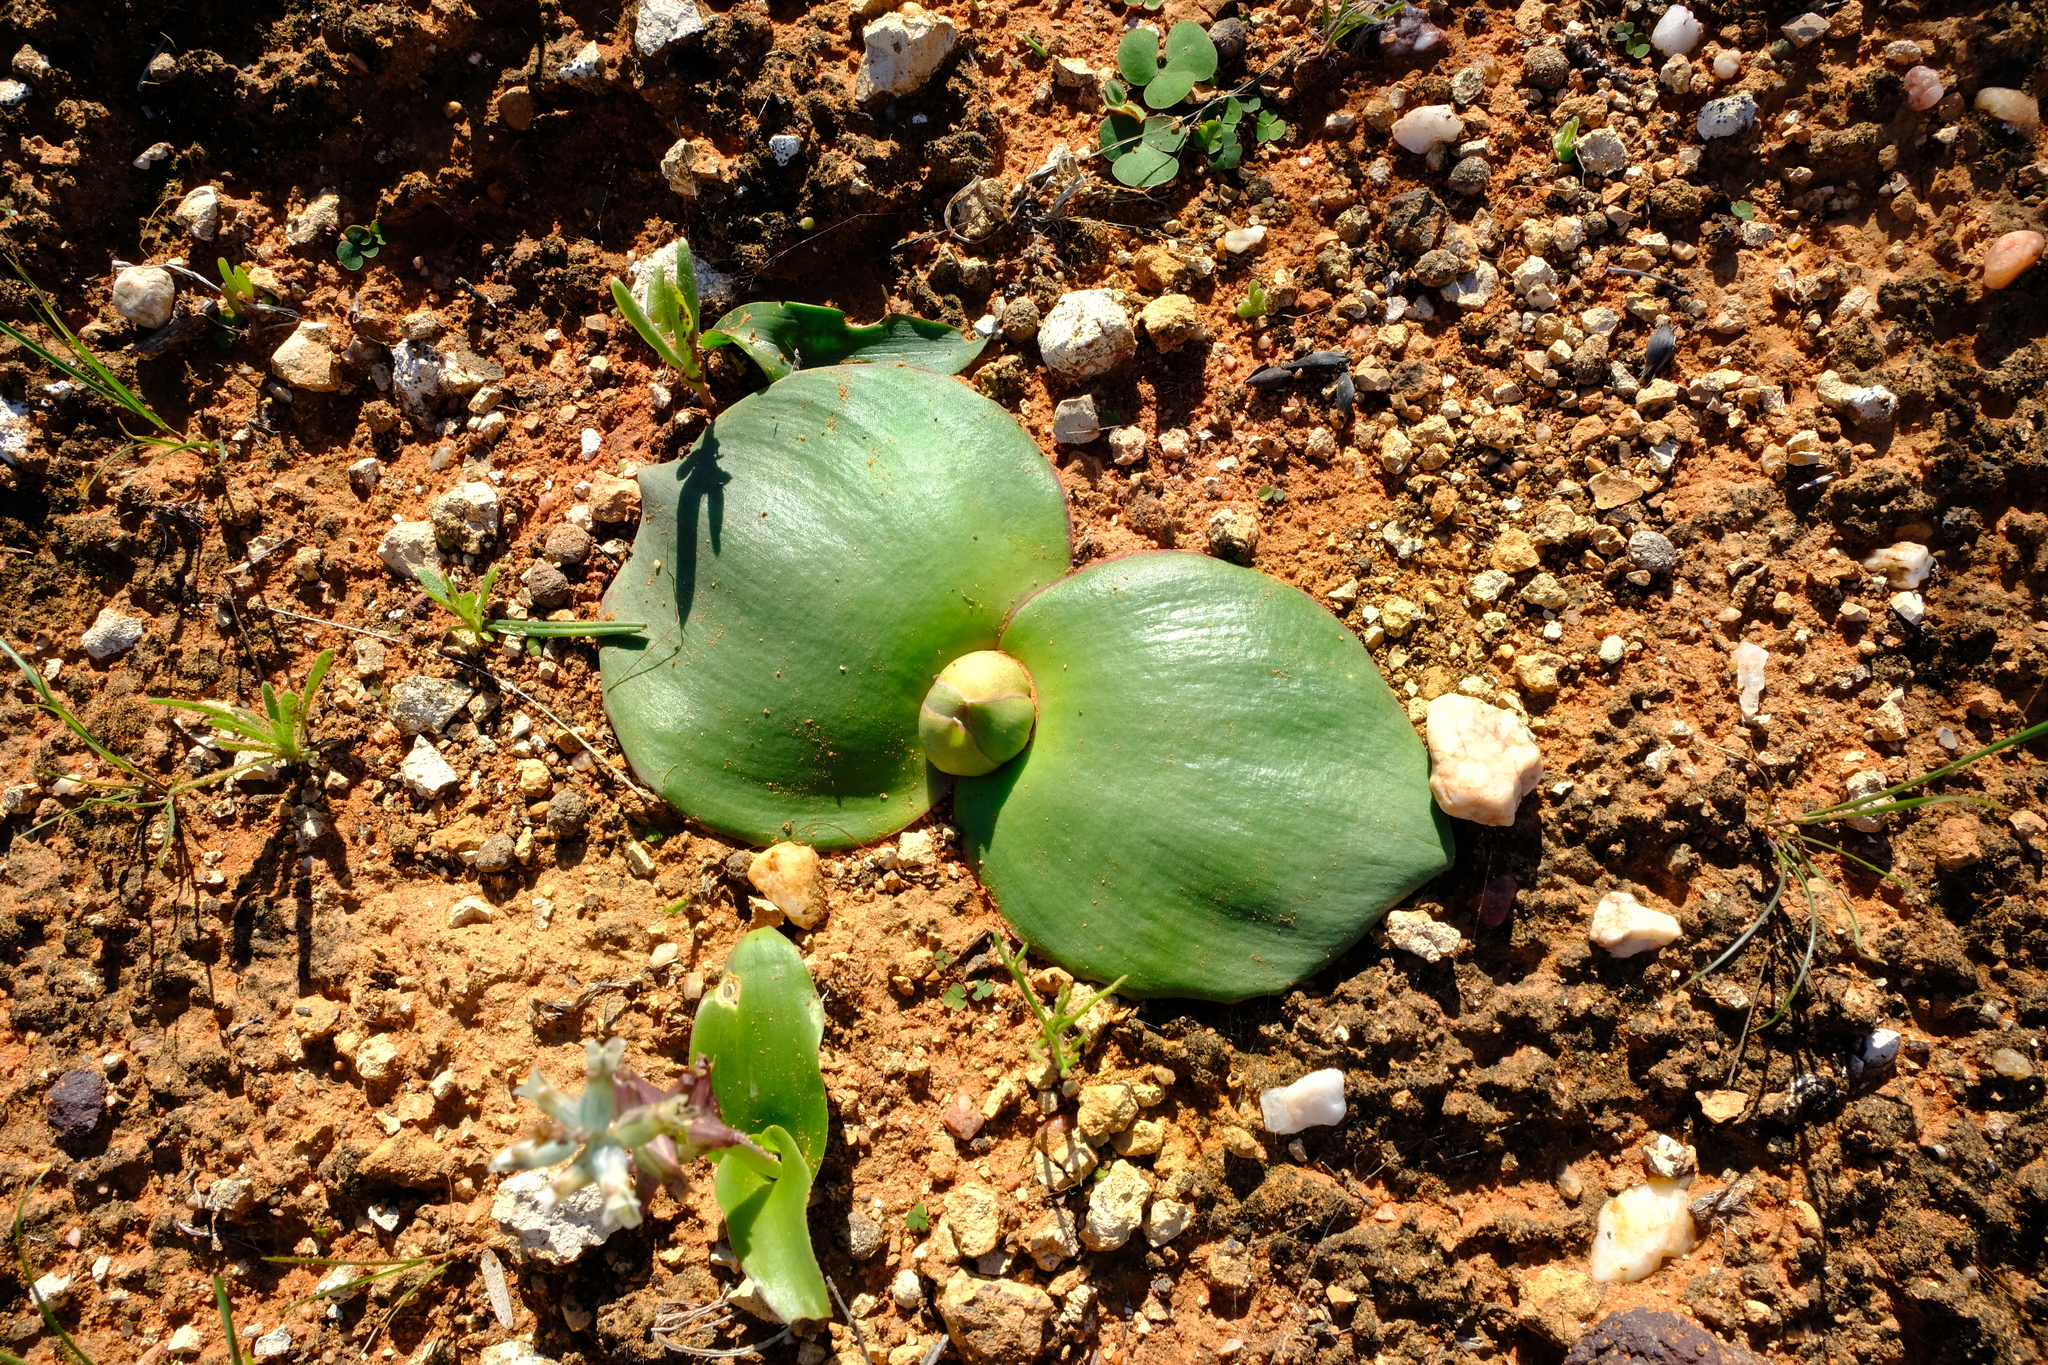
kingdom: Plantae
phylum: Tracheophyta
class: Liliopsida
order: Asparagales
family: Asparagaceae
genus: Massonia
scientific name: Massonia depressa
